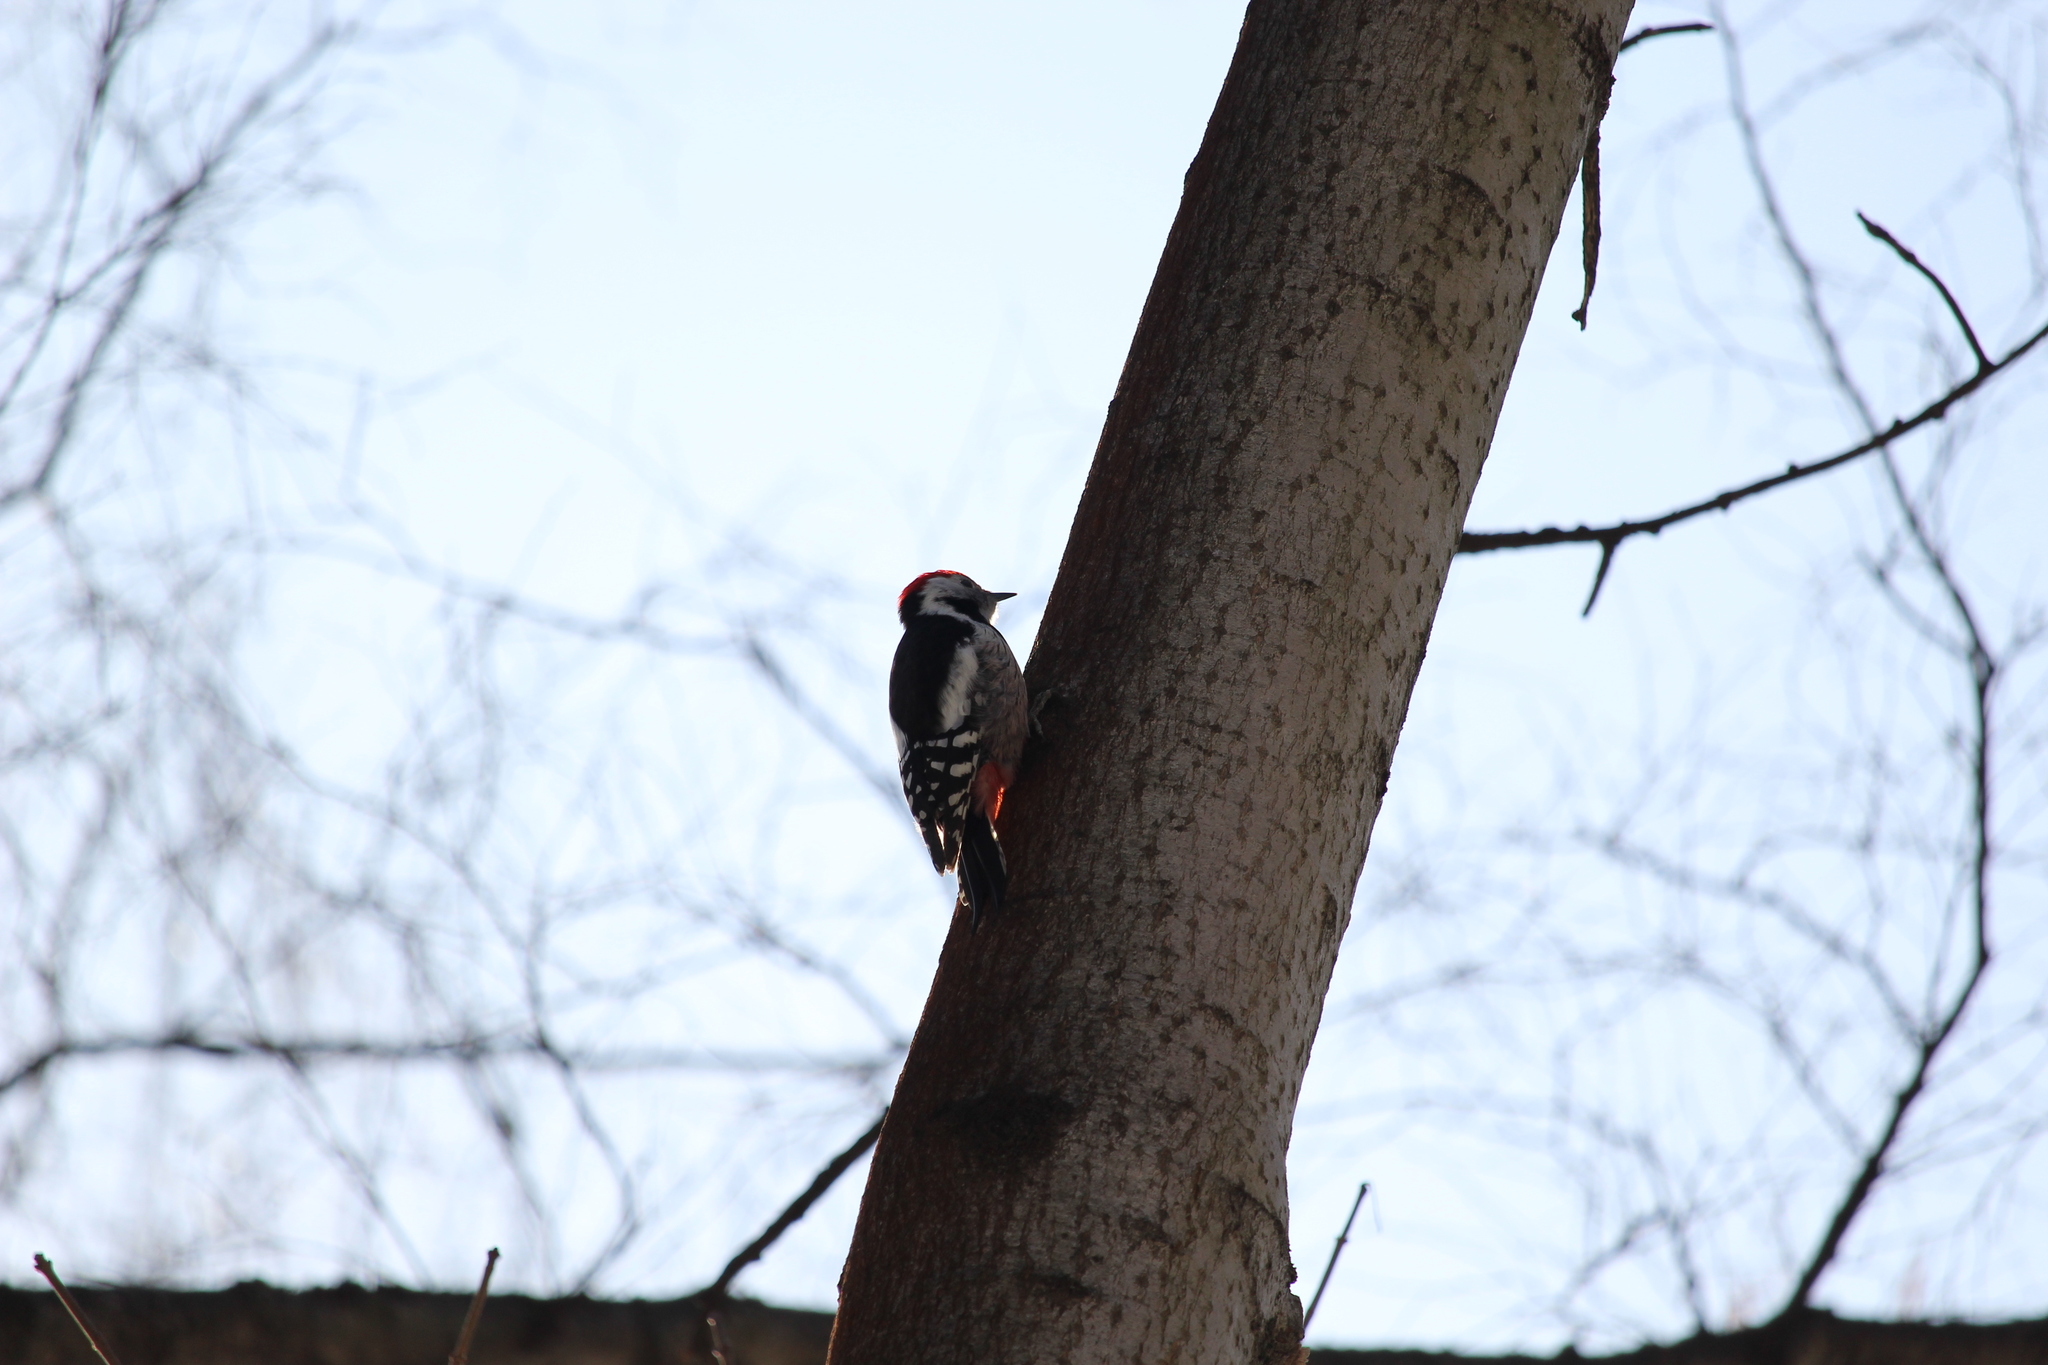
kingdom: Animalia
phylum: Chordata
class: Aves
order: Piciformes
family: Picidae
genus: Dendrocoptes
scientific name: Dendrocoptes medius
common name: Middle spotted woodpecker
